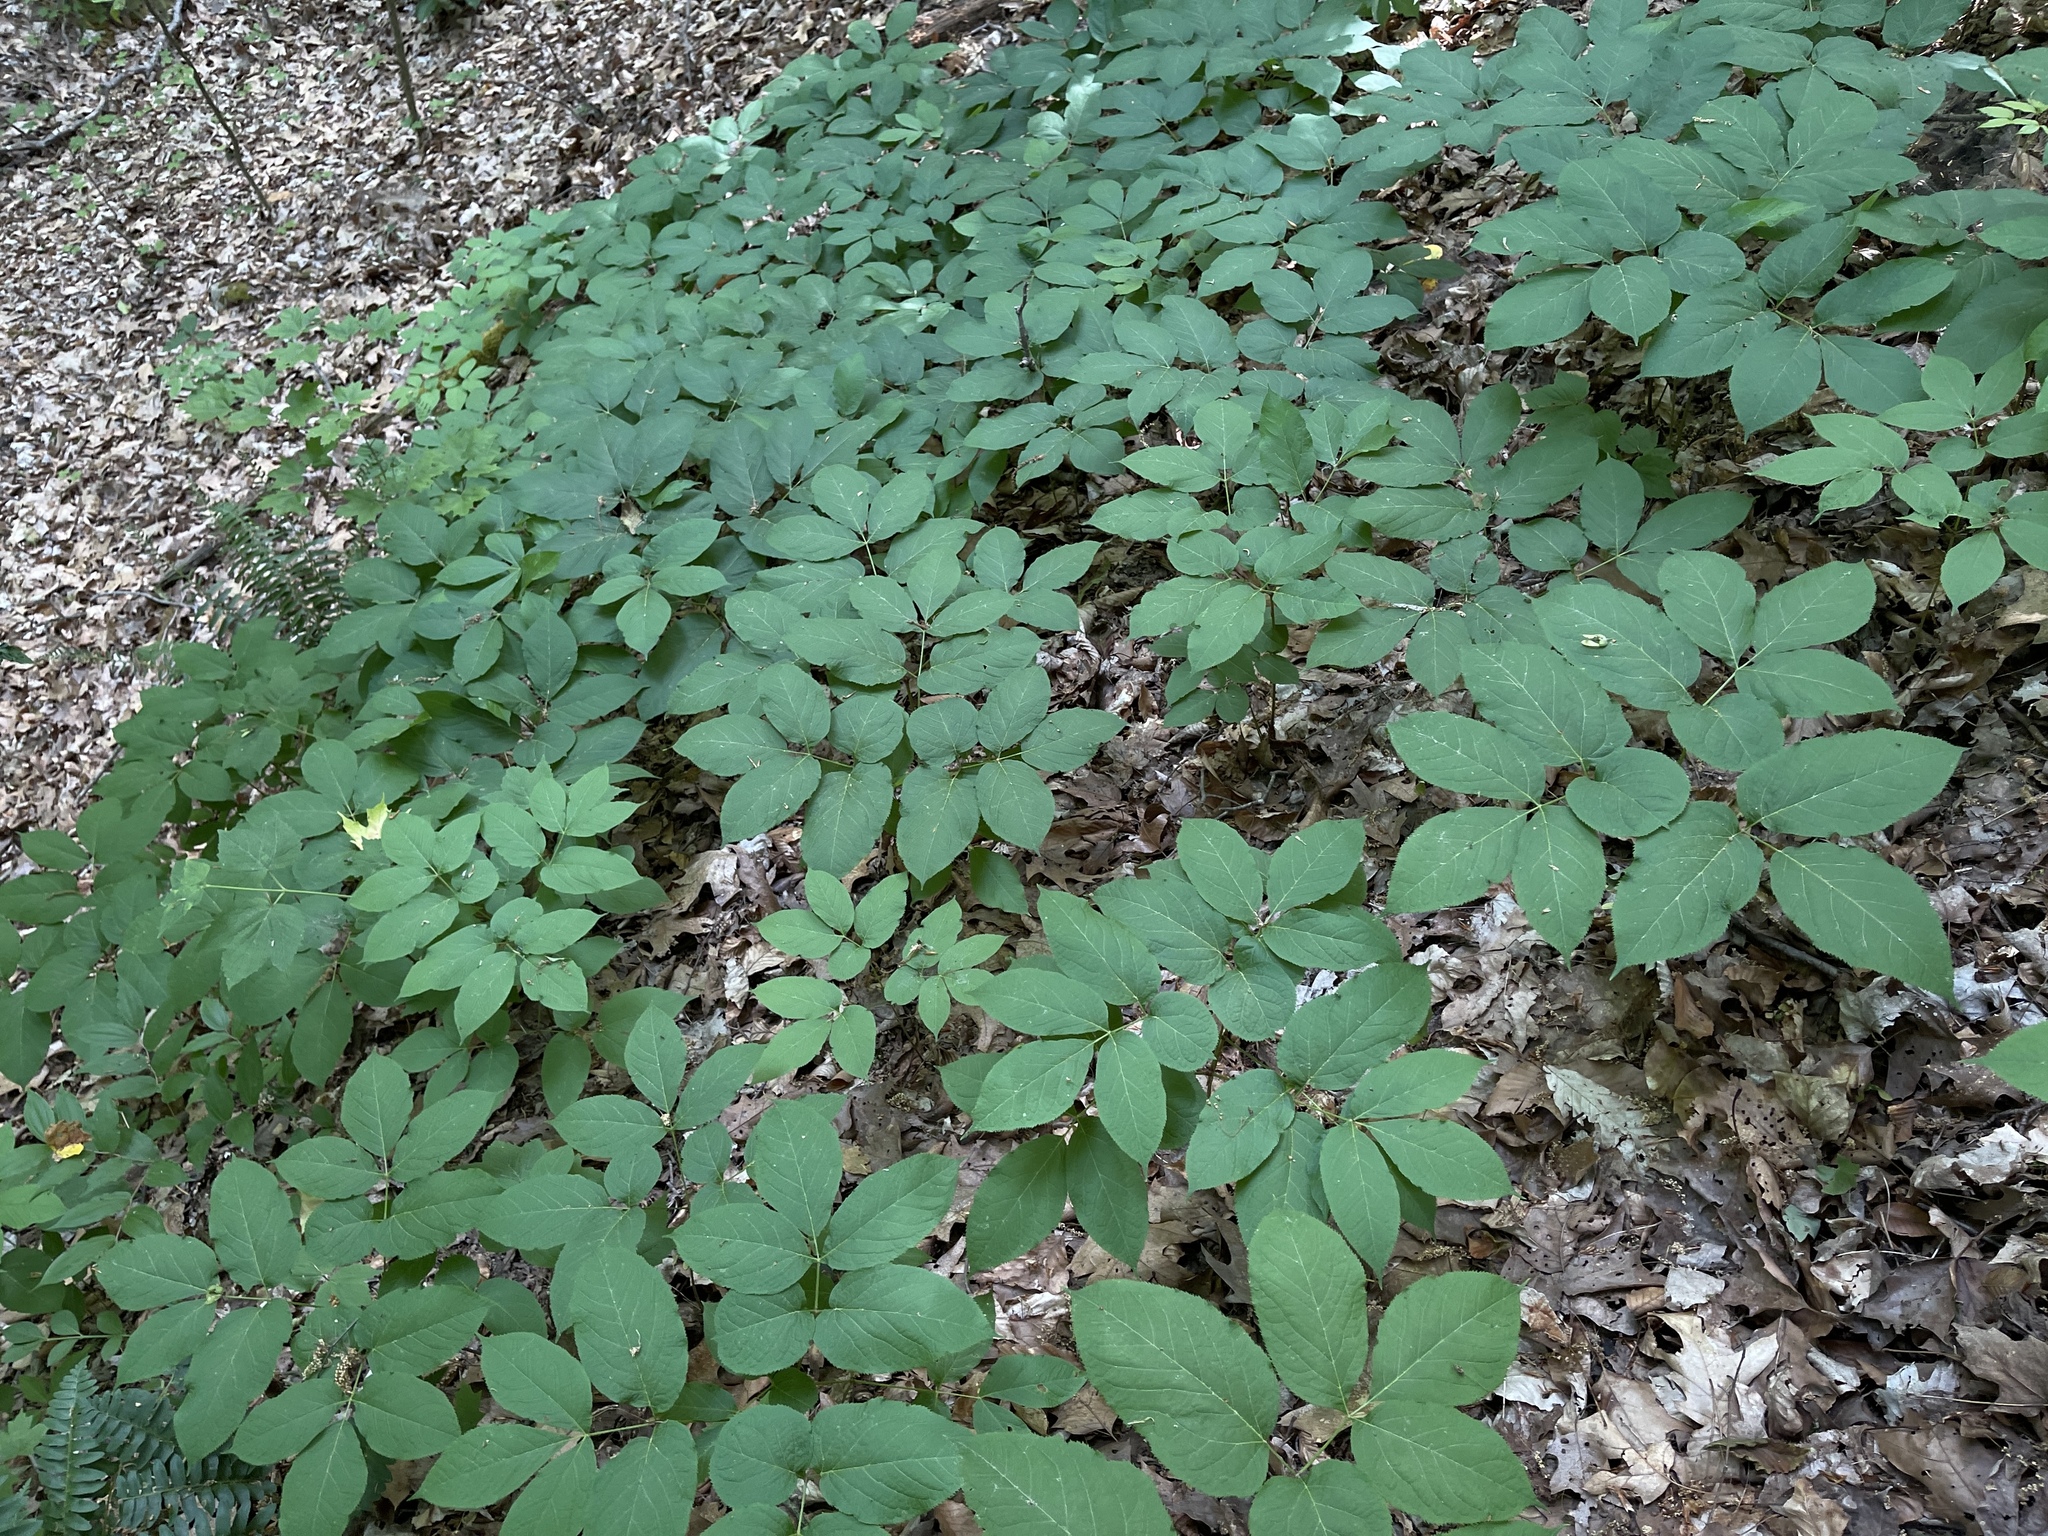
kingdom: Plantae
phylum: Tracheophyta
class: Magnoliopsida
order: Apiales
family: Araliaceae
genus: Aralia
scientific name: Aralia nudicaulis
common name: Wild sarsaparilla
